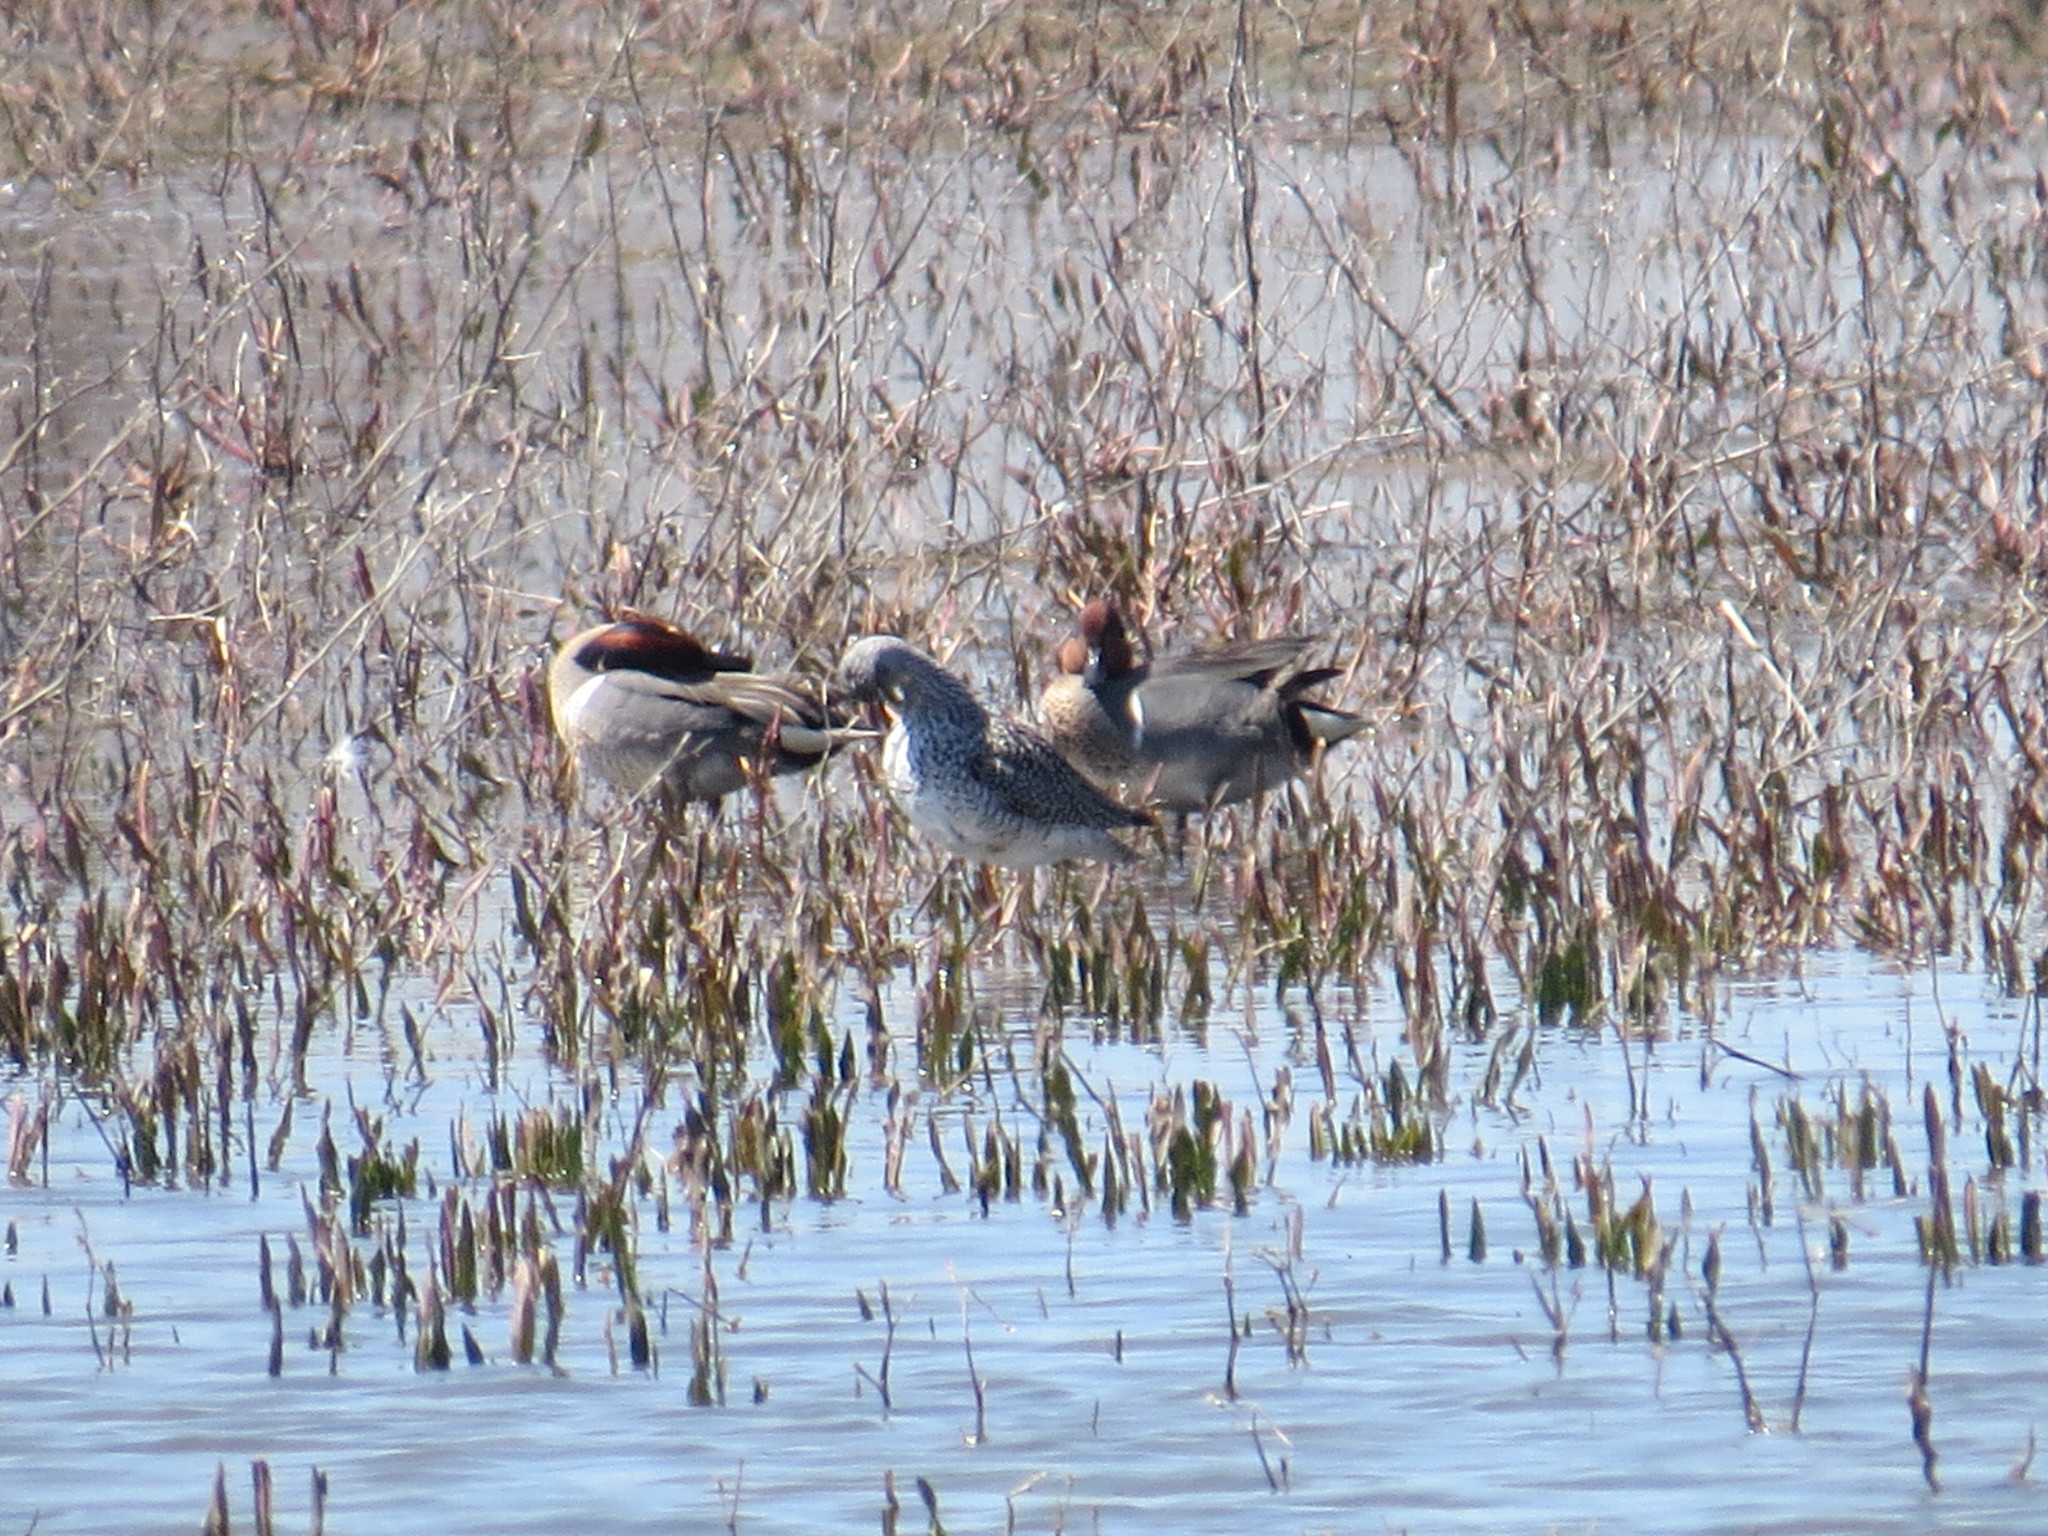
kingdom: Animalia
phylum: Chordata
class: Aves
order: Anseriformes
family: Anatidae
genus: Anas
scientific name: Anas crecca
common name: Eurasian teal
